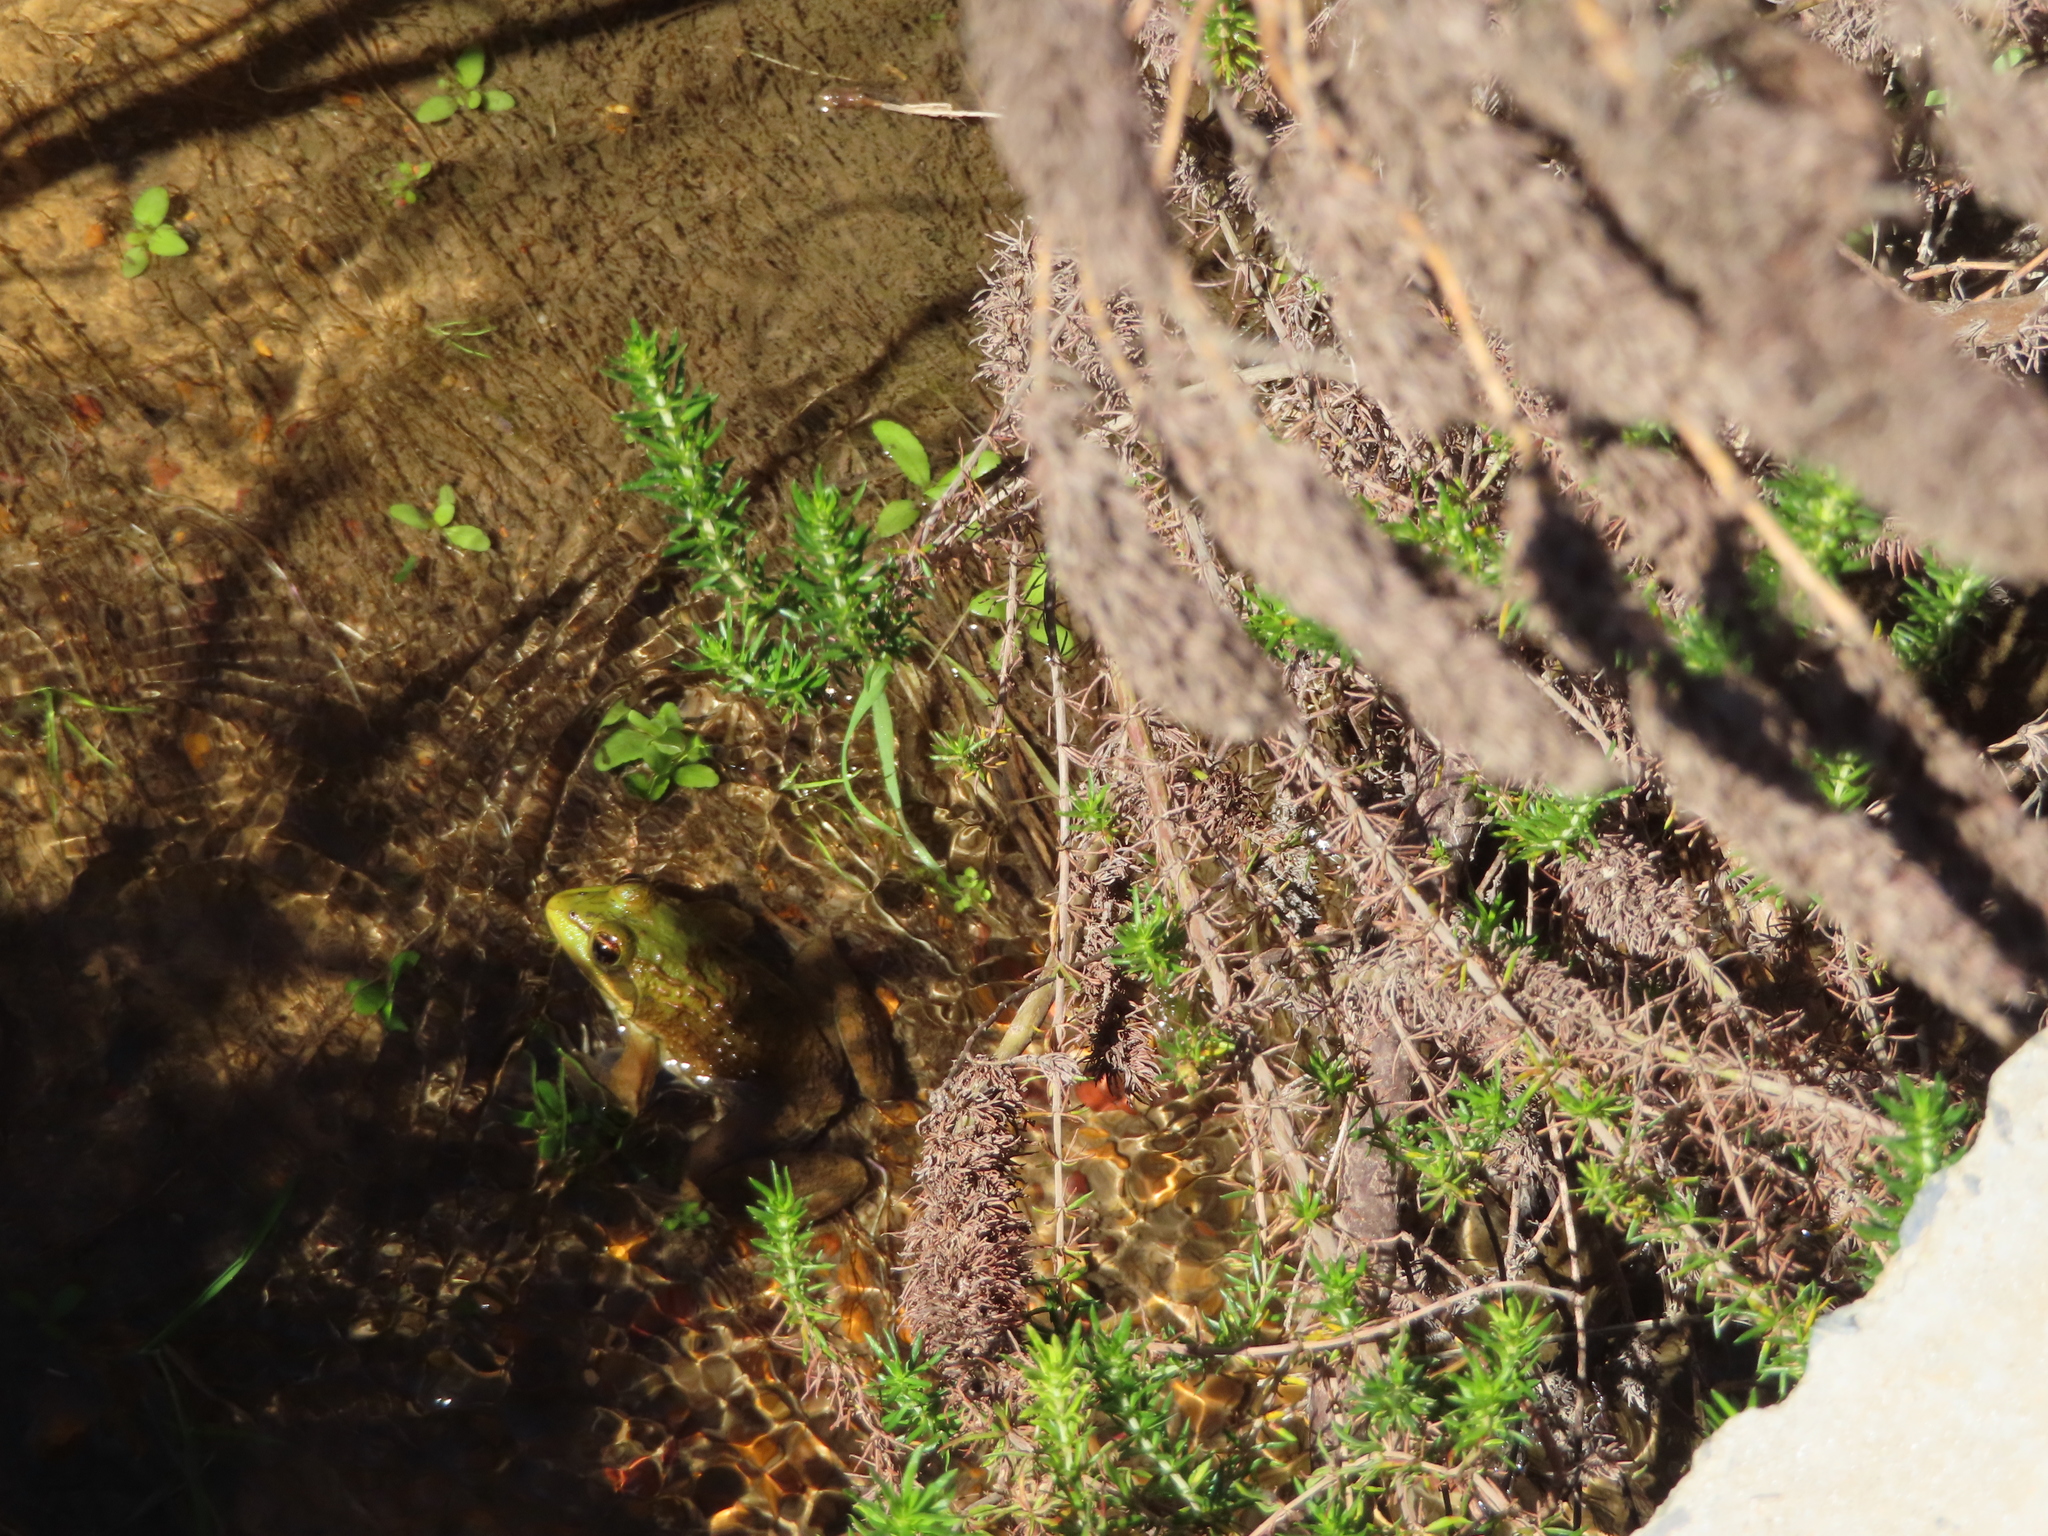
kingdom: Animalia
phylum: Chordata
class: Amphibia
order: Anura
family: Pyxicephalidae
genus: Amietia
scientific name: Amietia fuscigula
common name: Cape rana
